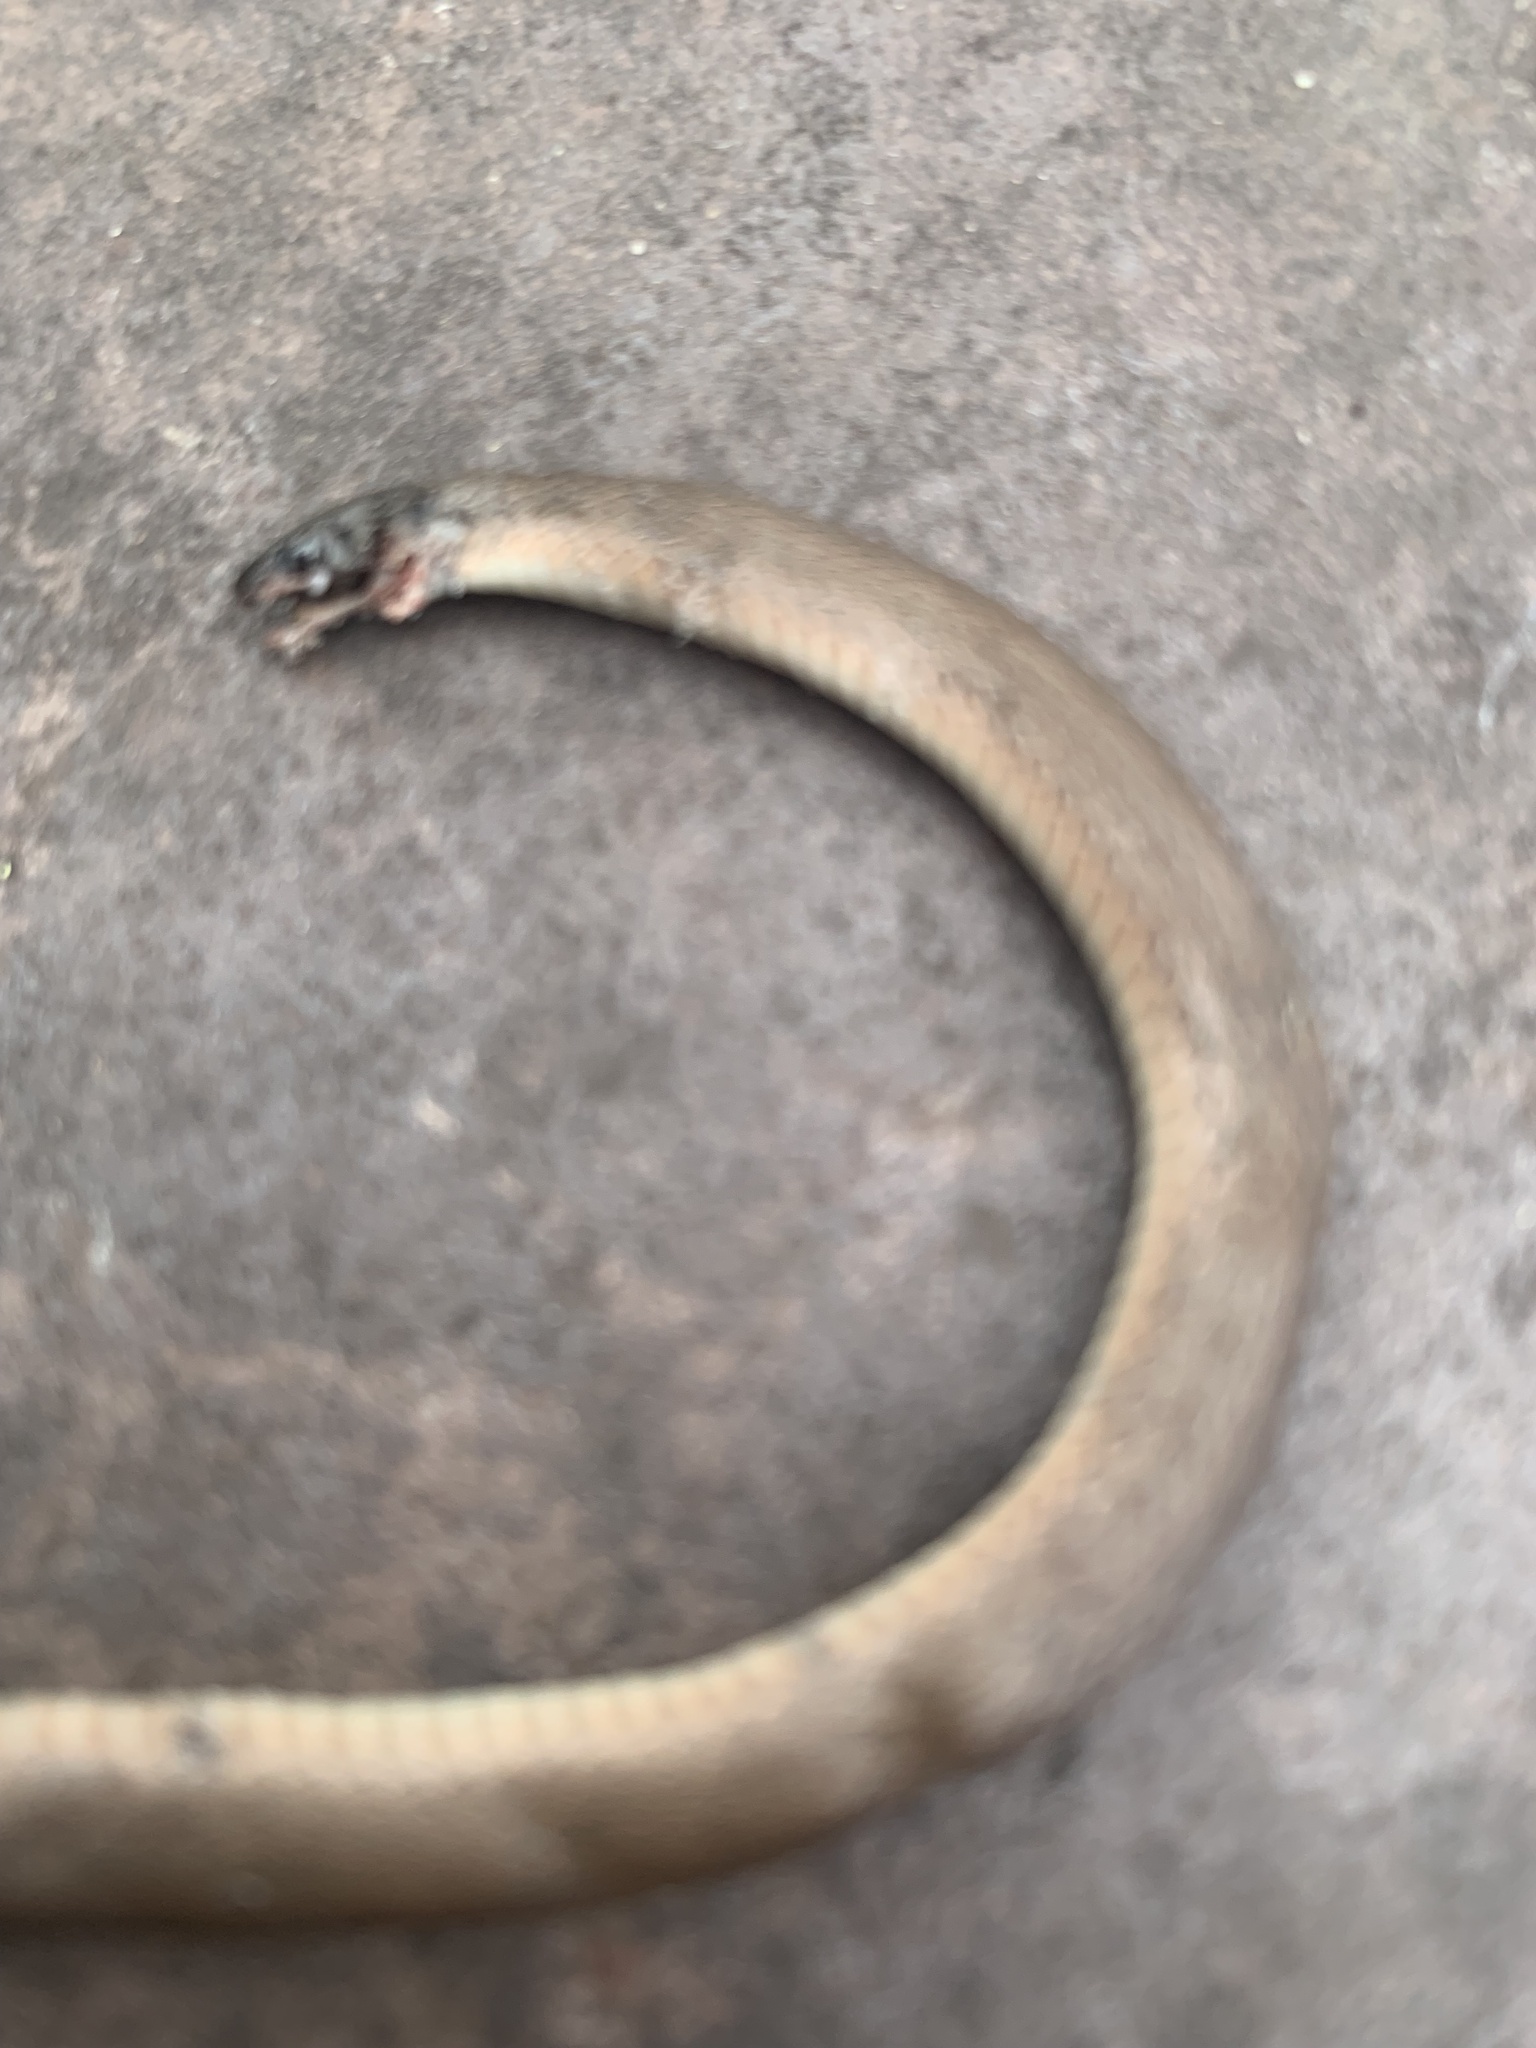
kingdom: Animalia
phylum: Chordata
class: Squamata
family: Colubridae
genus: Haldea
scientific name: Haldea striatula
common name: Rough earth snake
